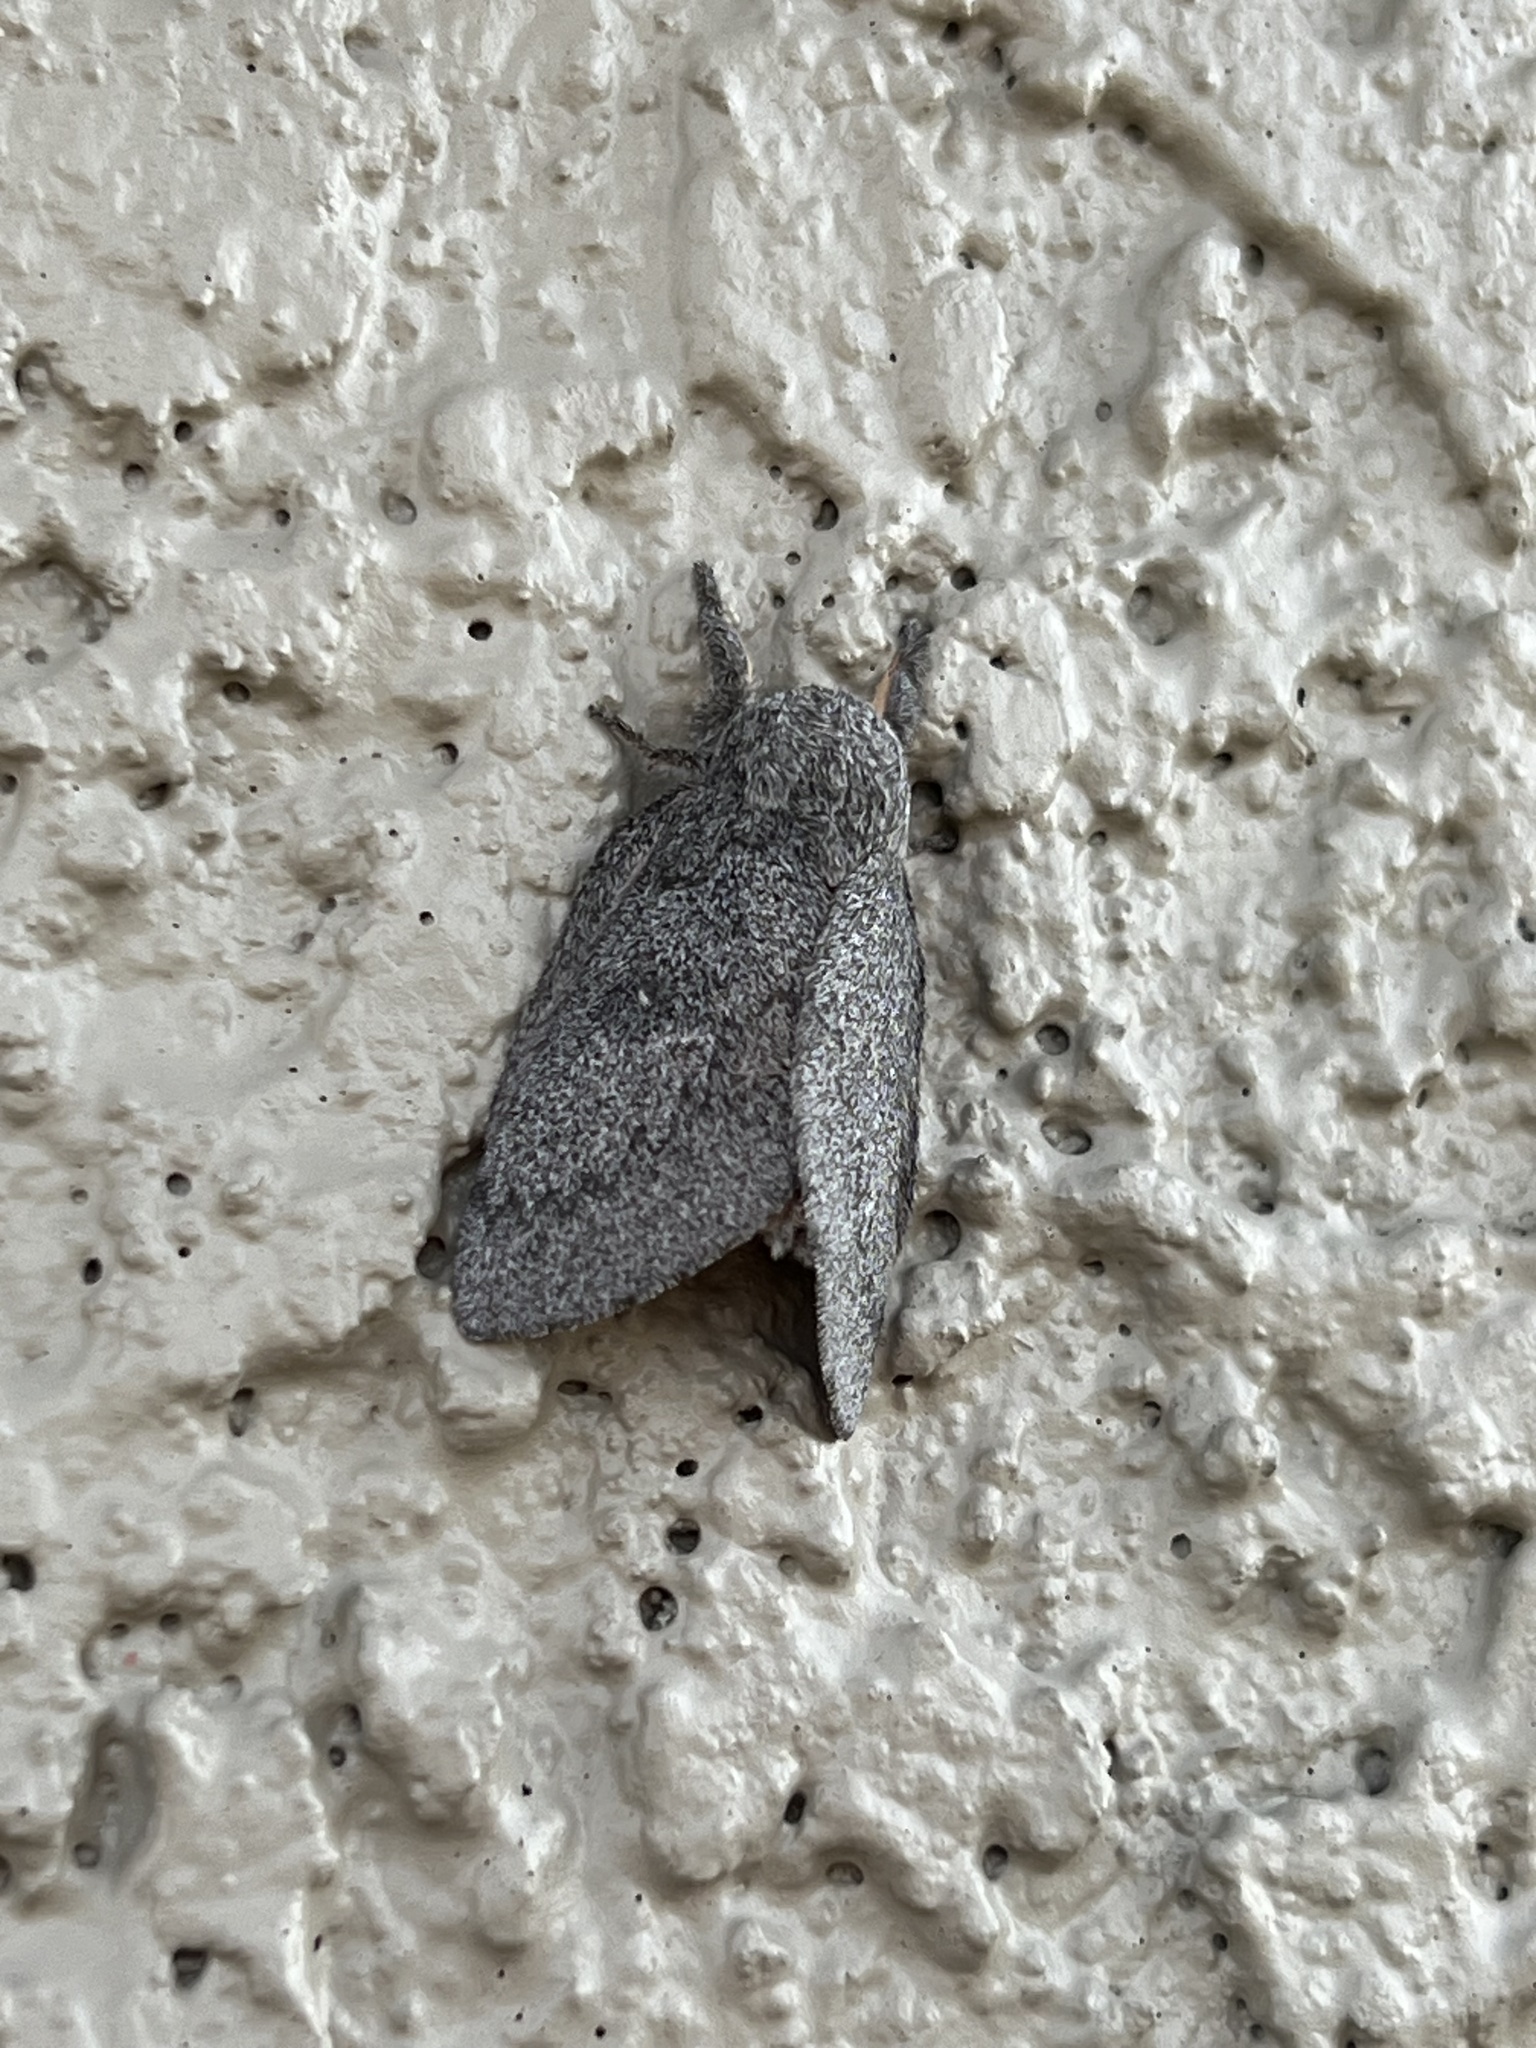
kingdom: Animalia
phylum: Arthropoda
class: Insecta
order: Lepidoptera
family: Saturniidae
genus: Syssphinx
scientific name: Syssphinx hubbardi
